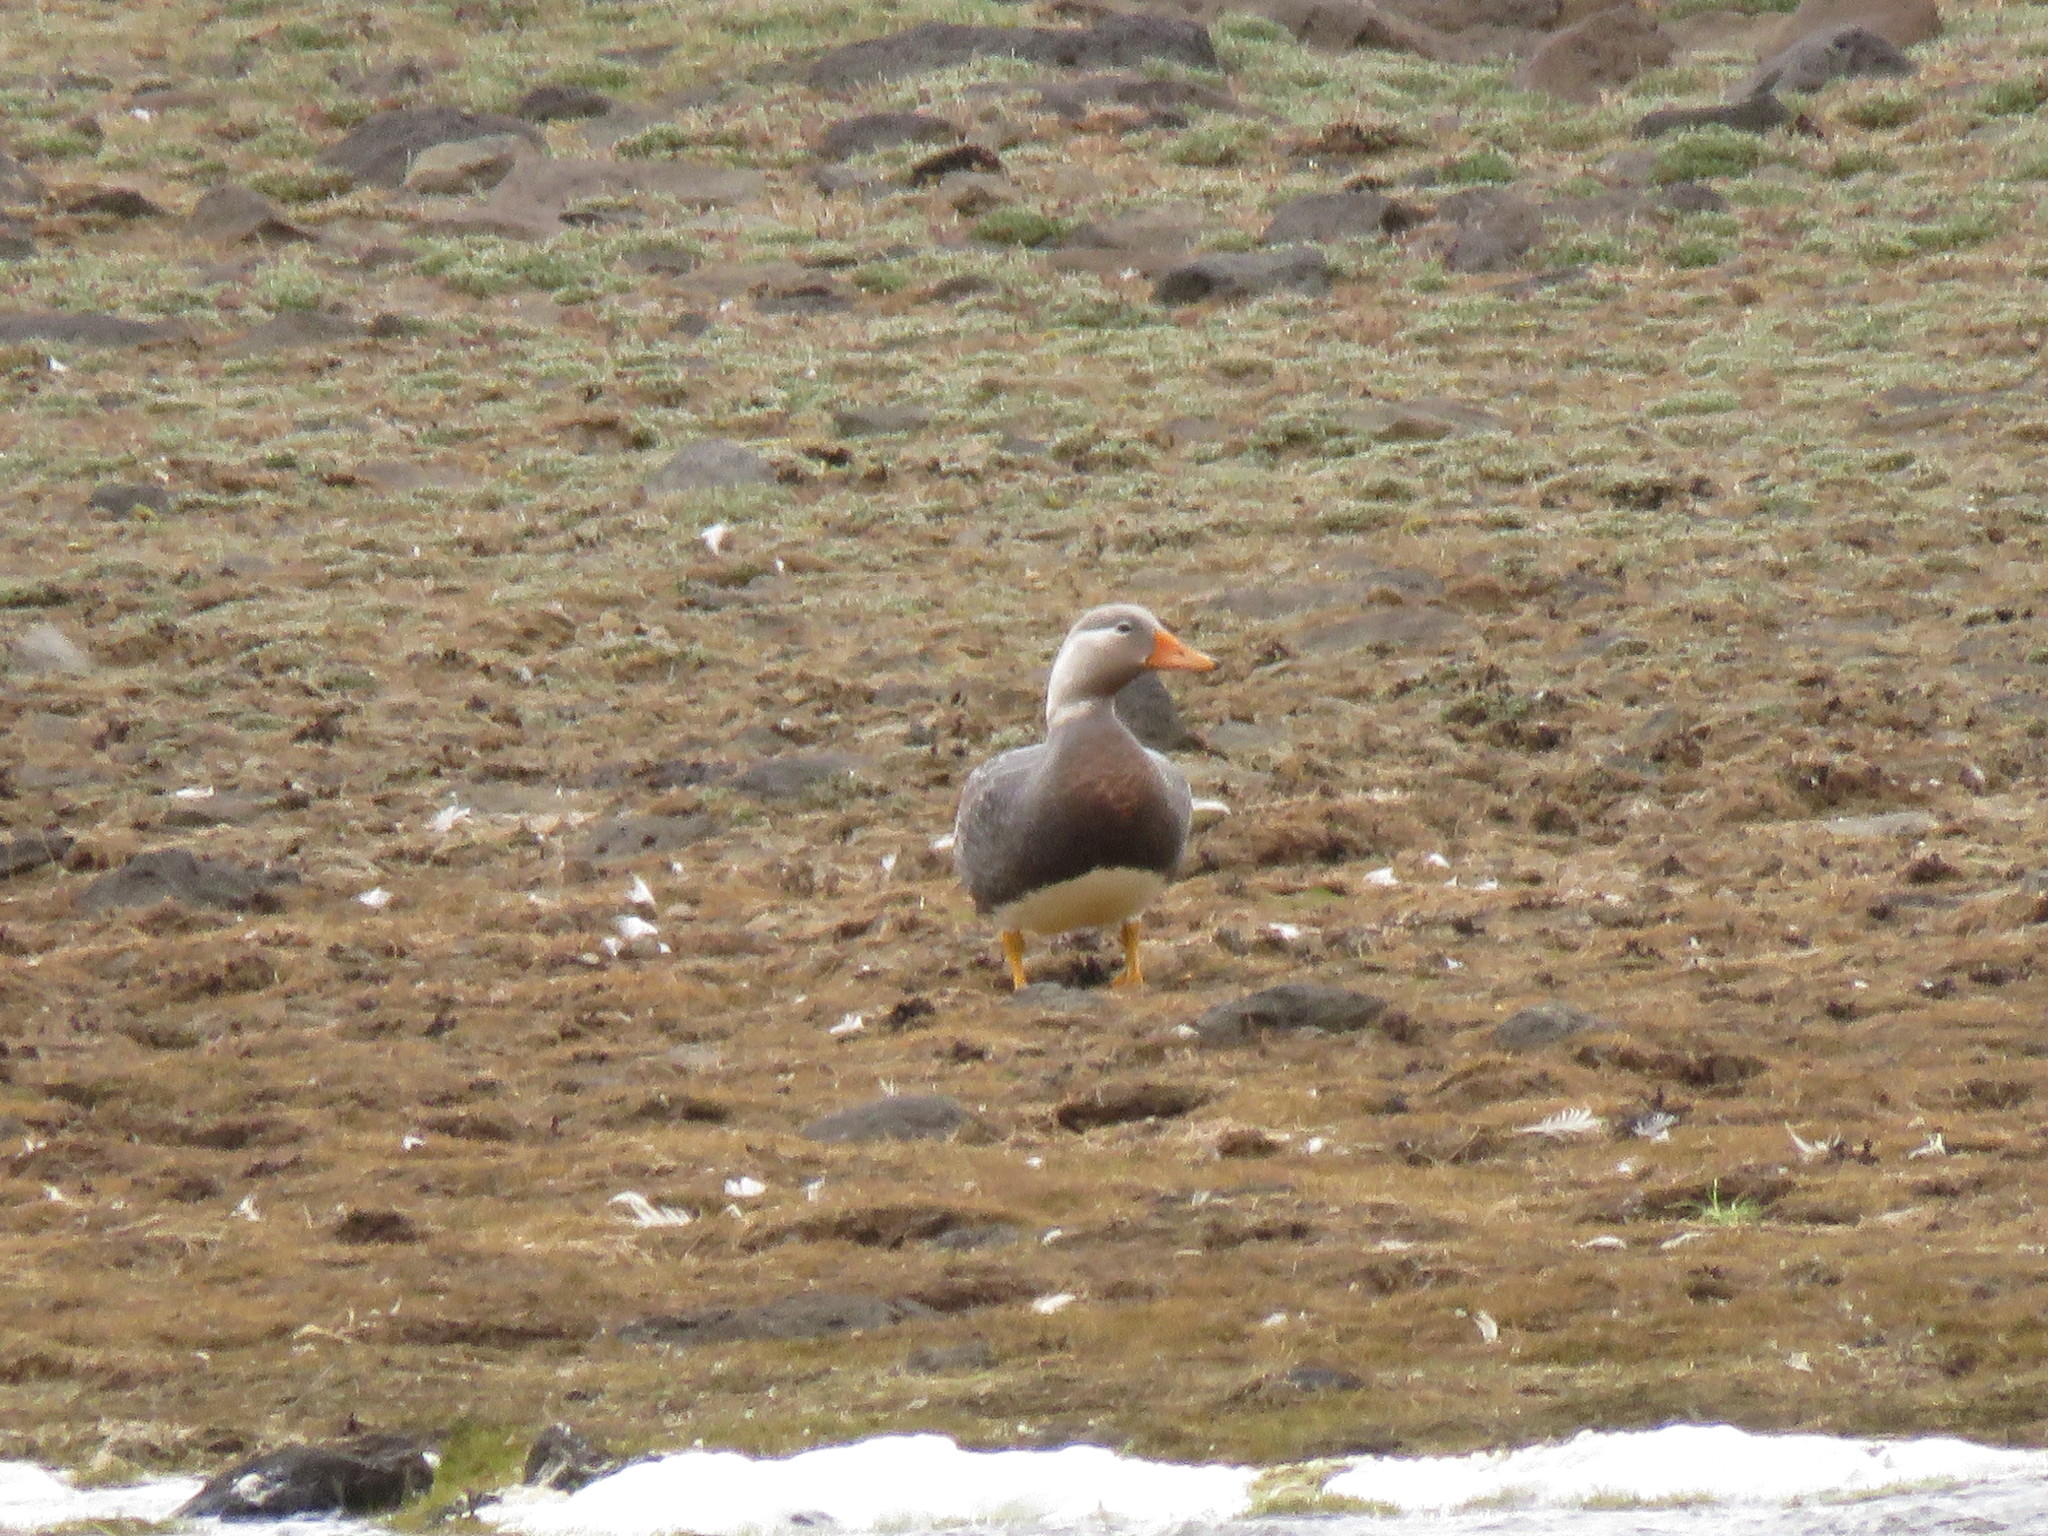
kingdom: Animalia
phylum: Chordata
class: Aves
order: Anseriformes
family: Anatidae
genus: Tachyeres
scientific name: Tachyeres patachonicus
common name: Flying steamer duck
